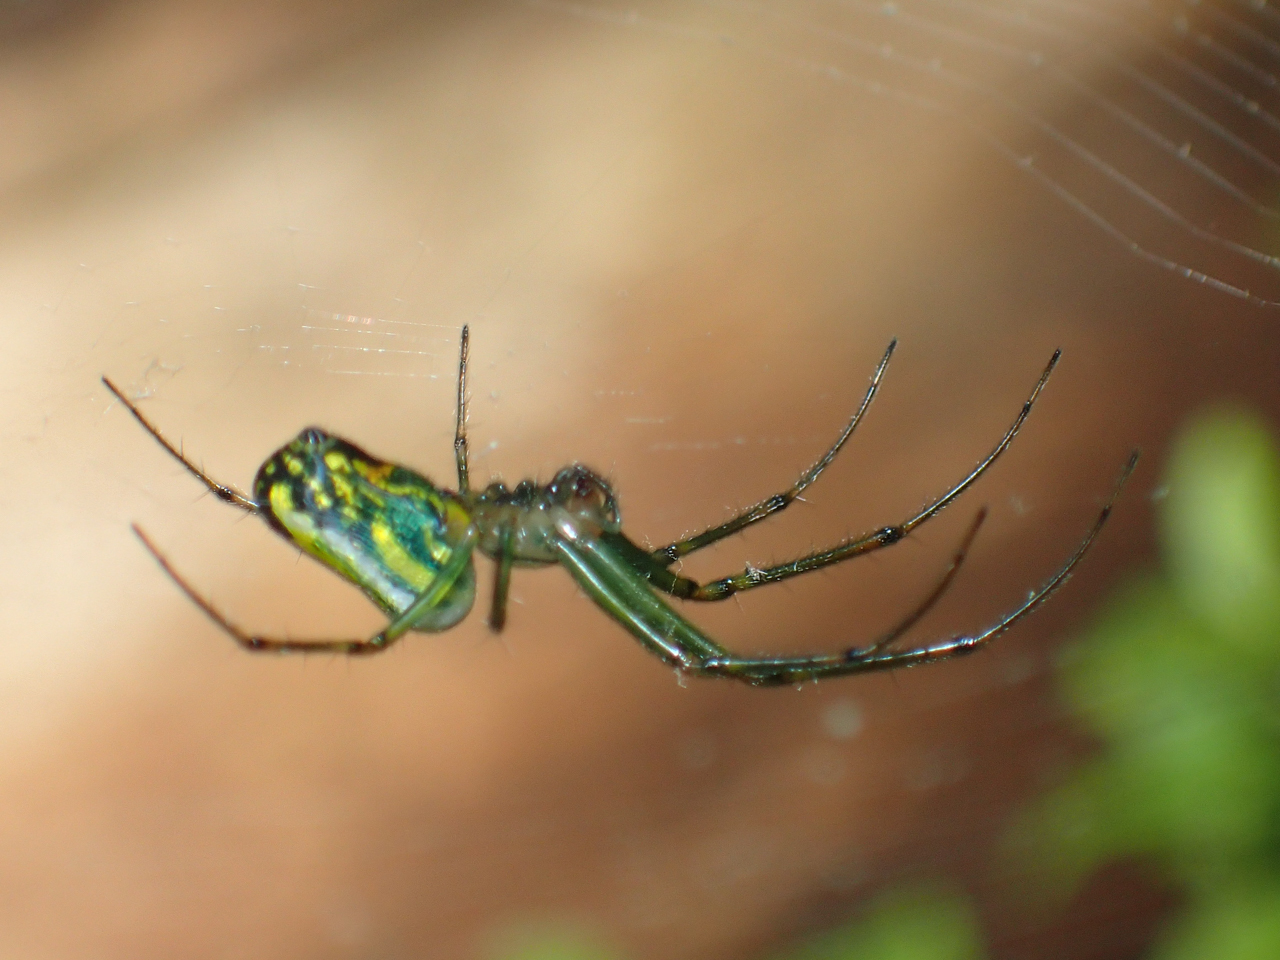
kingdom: Animalia
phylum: Arthropoda
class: Arachnida
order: Araneae
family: Tetragnathidae
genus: Leucauge
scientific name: Leucauge venusta
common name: Longjawed orb weavers
